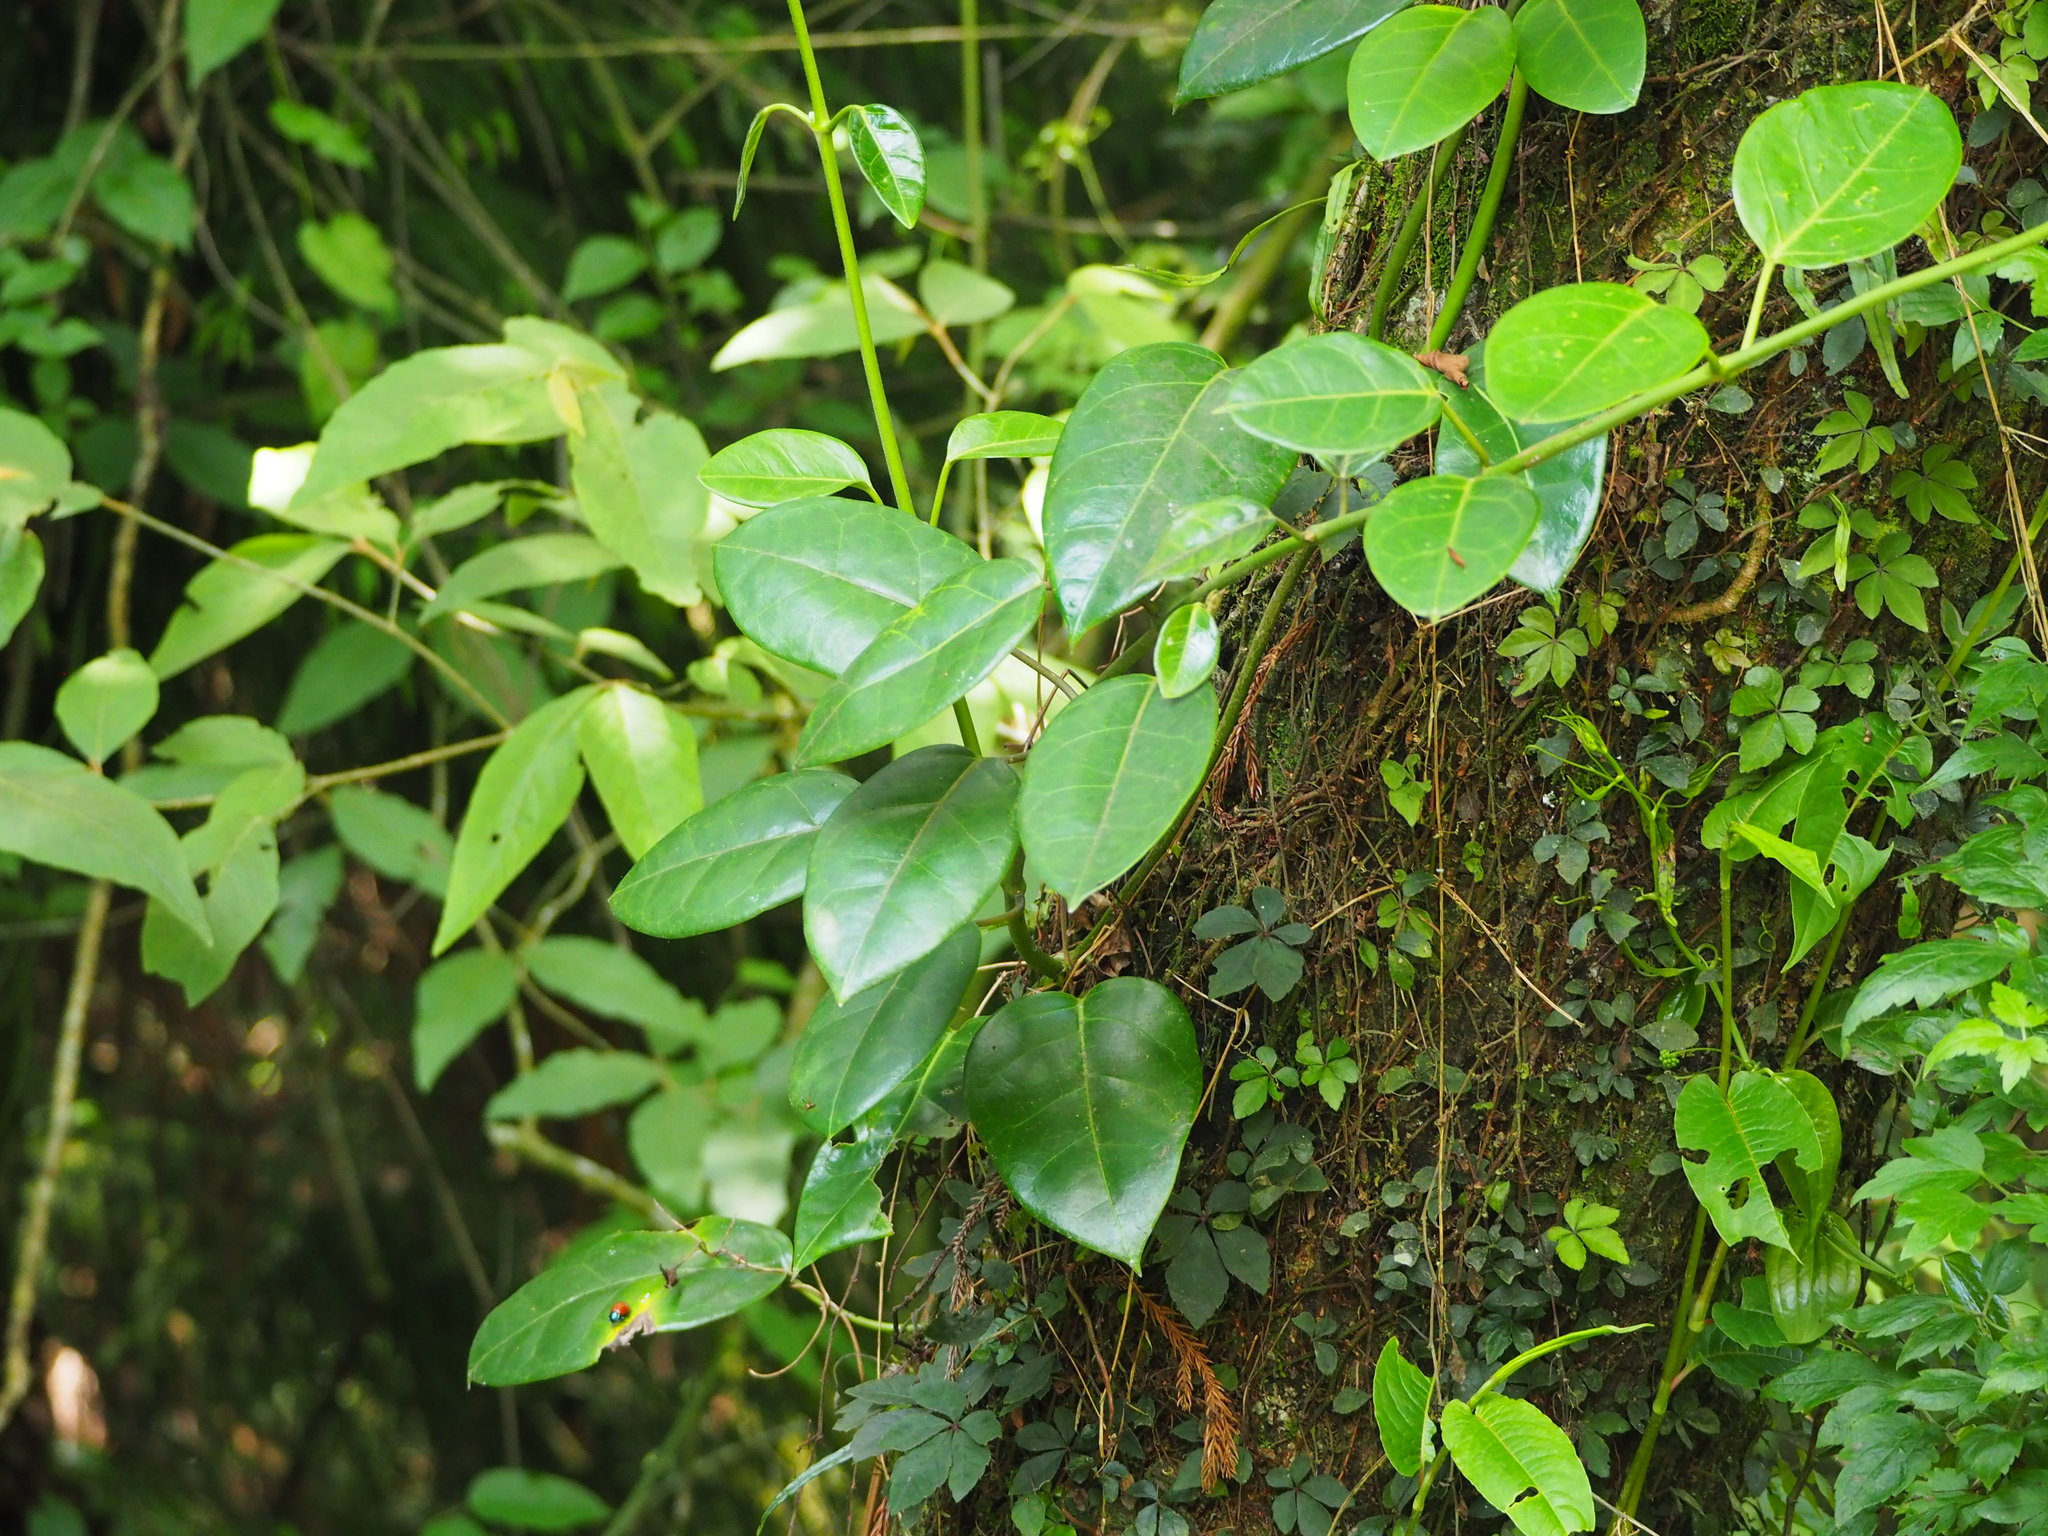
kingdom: Plantae
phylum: Tracheophyta
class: Magnoliopsida
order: Gentianales
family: Apocynaceae
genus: Sinomarsdenia
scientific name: Sinomarsdenia formosana
